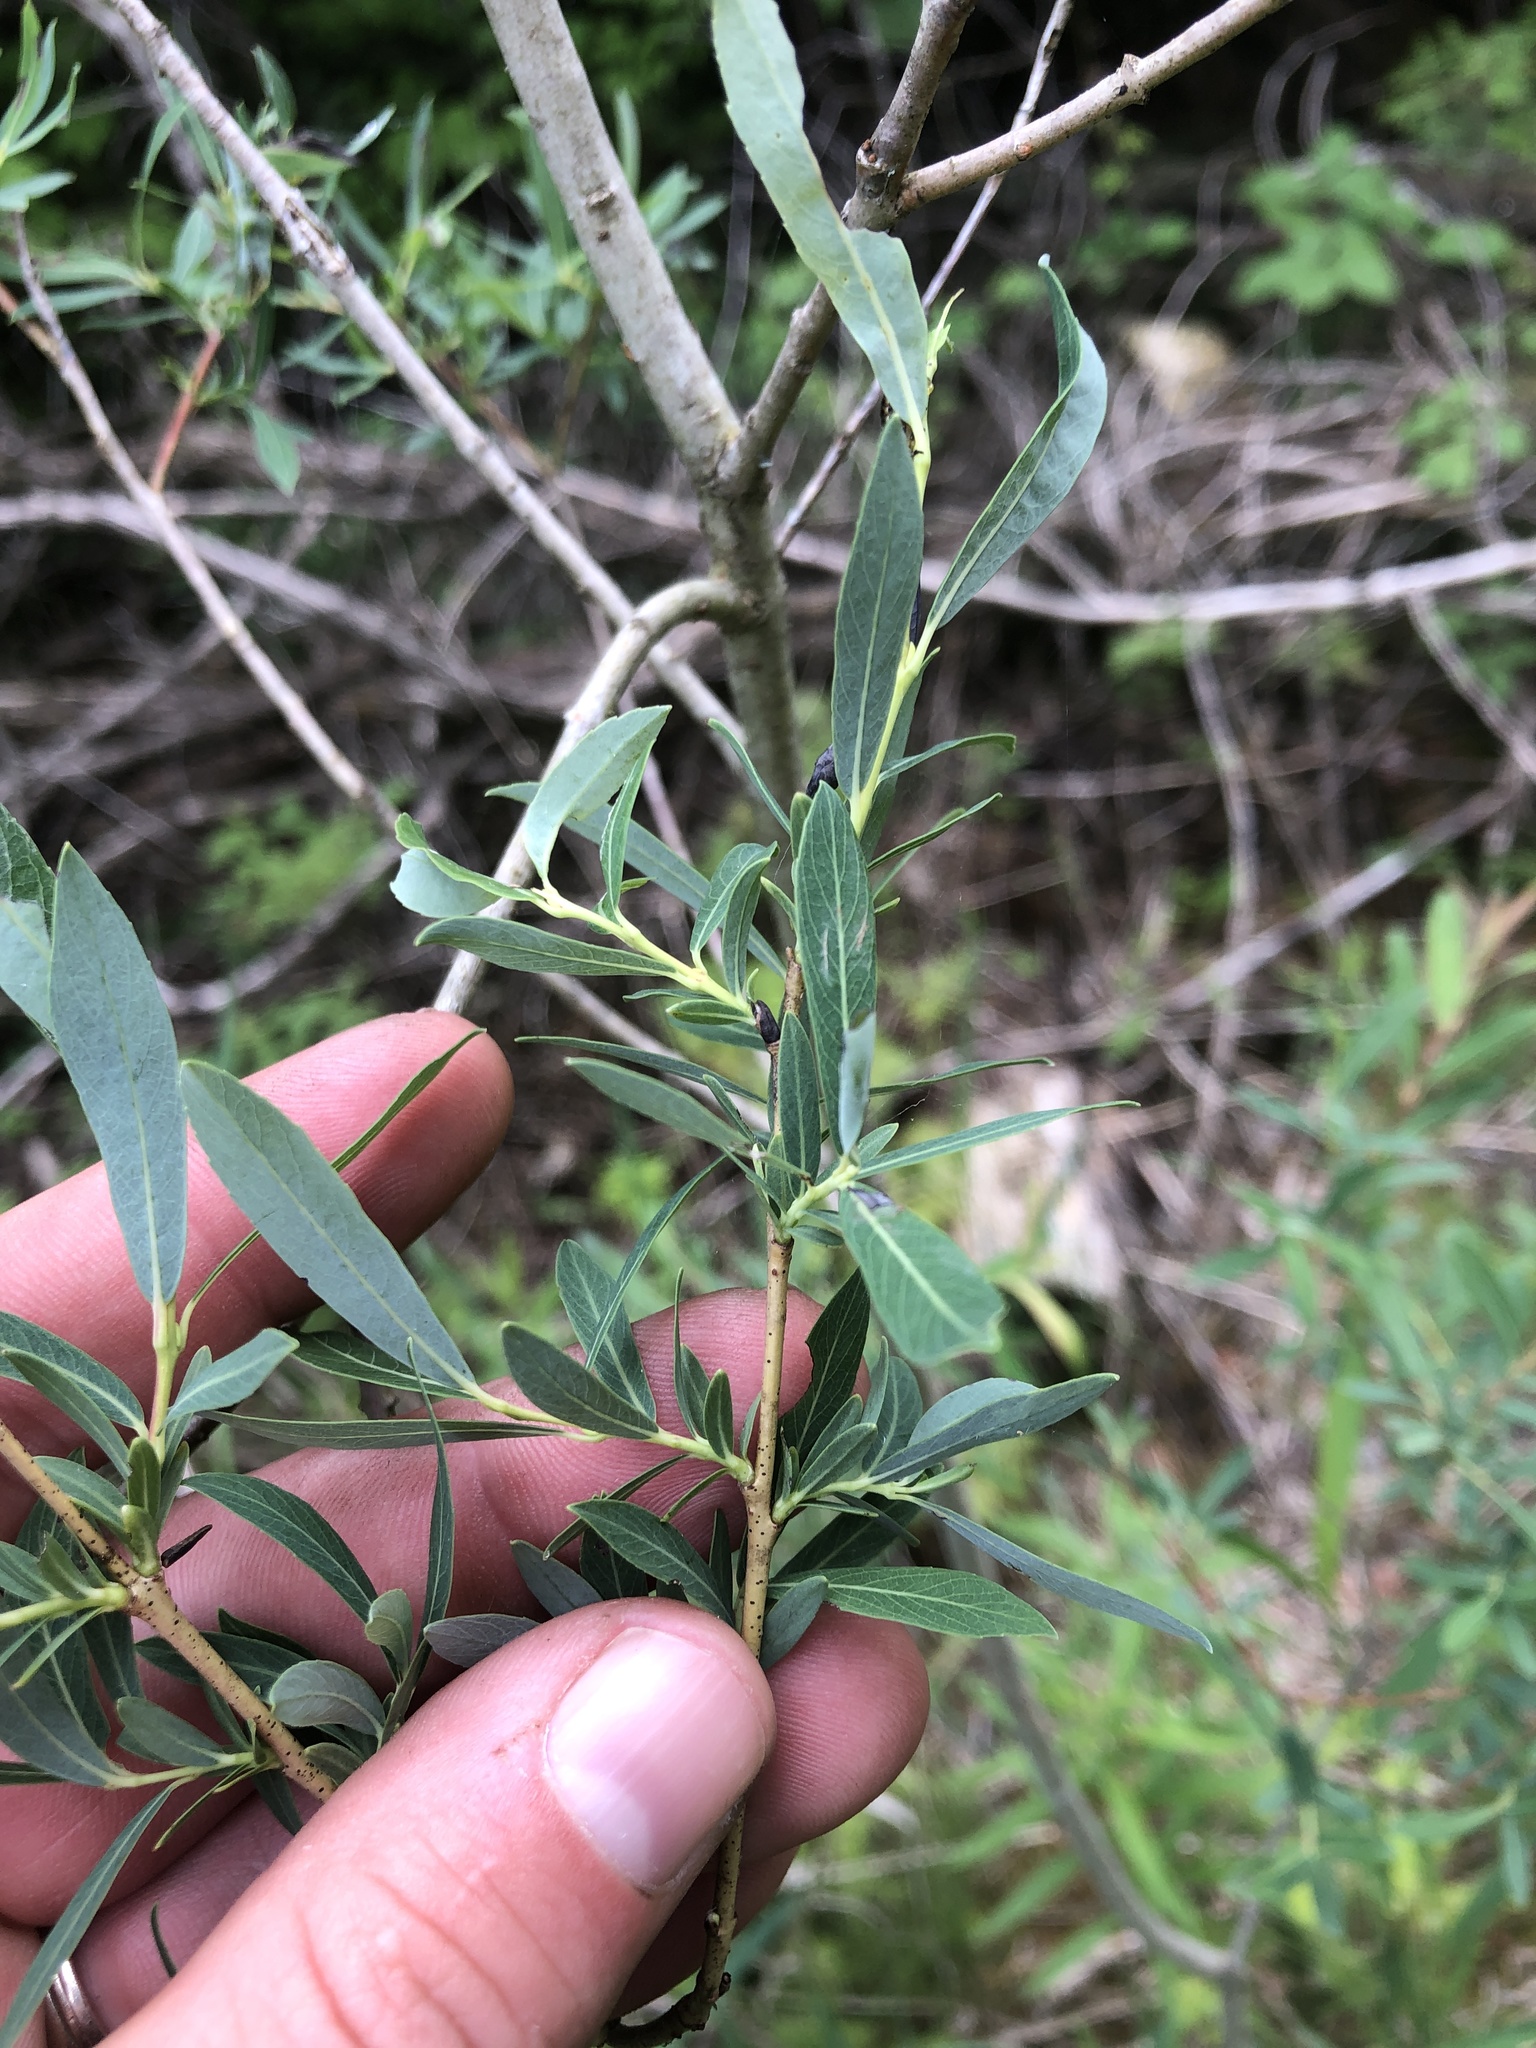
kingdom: Plantae
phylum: Tracheophyta
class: Magnoliopsida
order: Malpighiales
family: Salicaceae
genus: Salix
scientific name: Salix purpurea
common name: Purple willow
